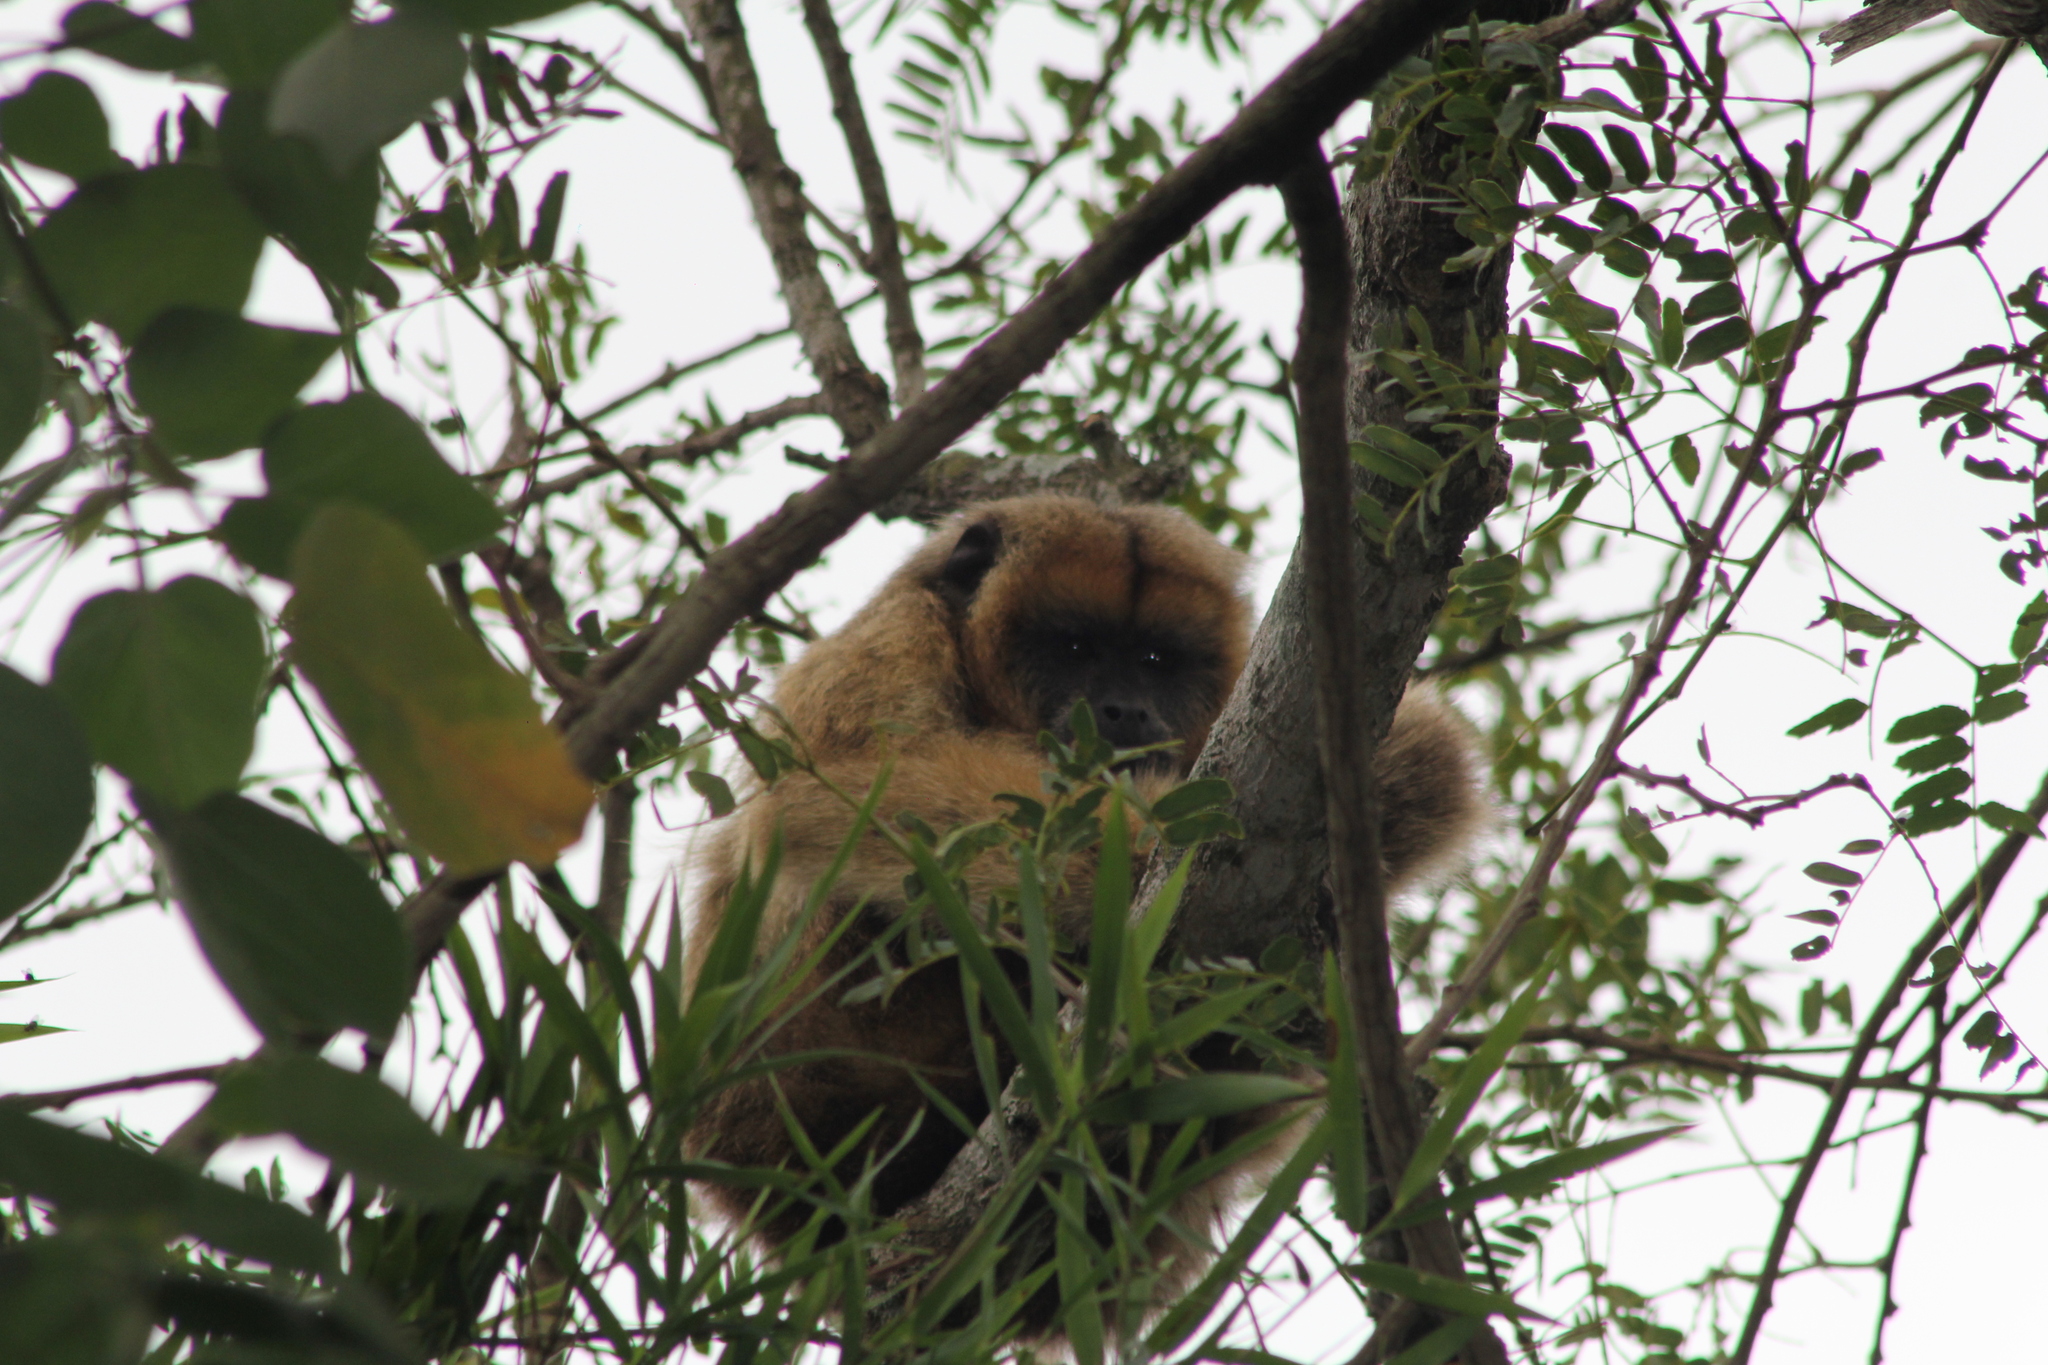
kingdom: Animalia
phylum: Chordata
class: Mammalia
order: Primates
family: Atelidae
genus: Alouatta
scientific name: Alouatta caraya
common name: Black howler
